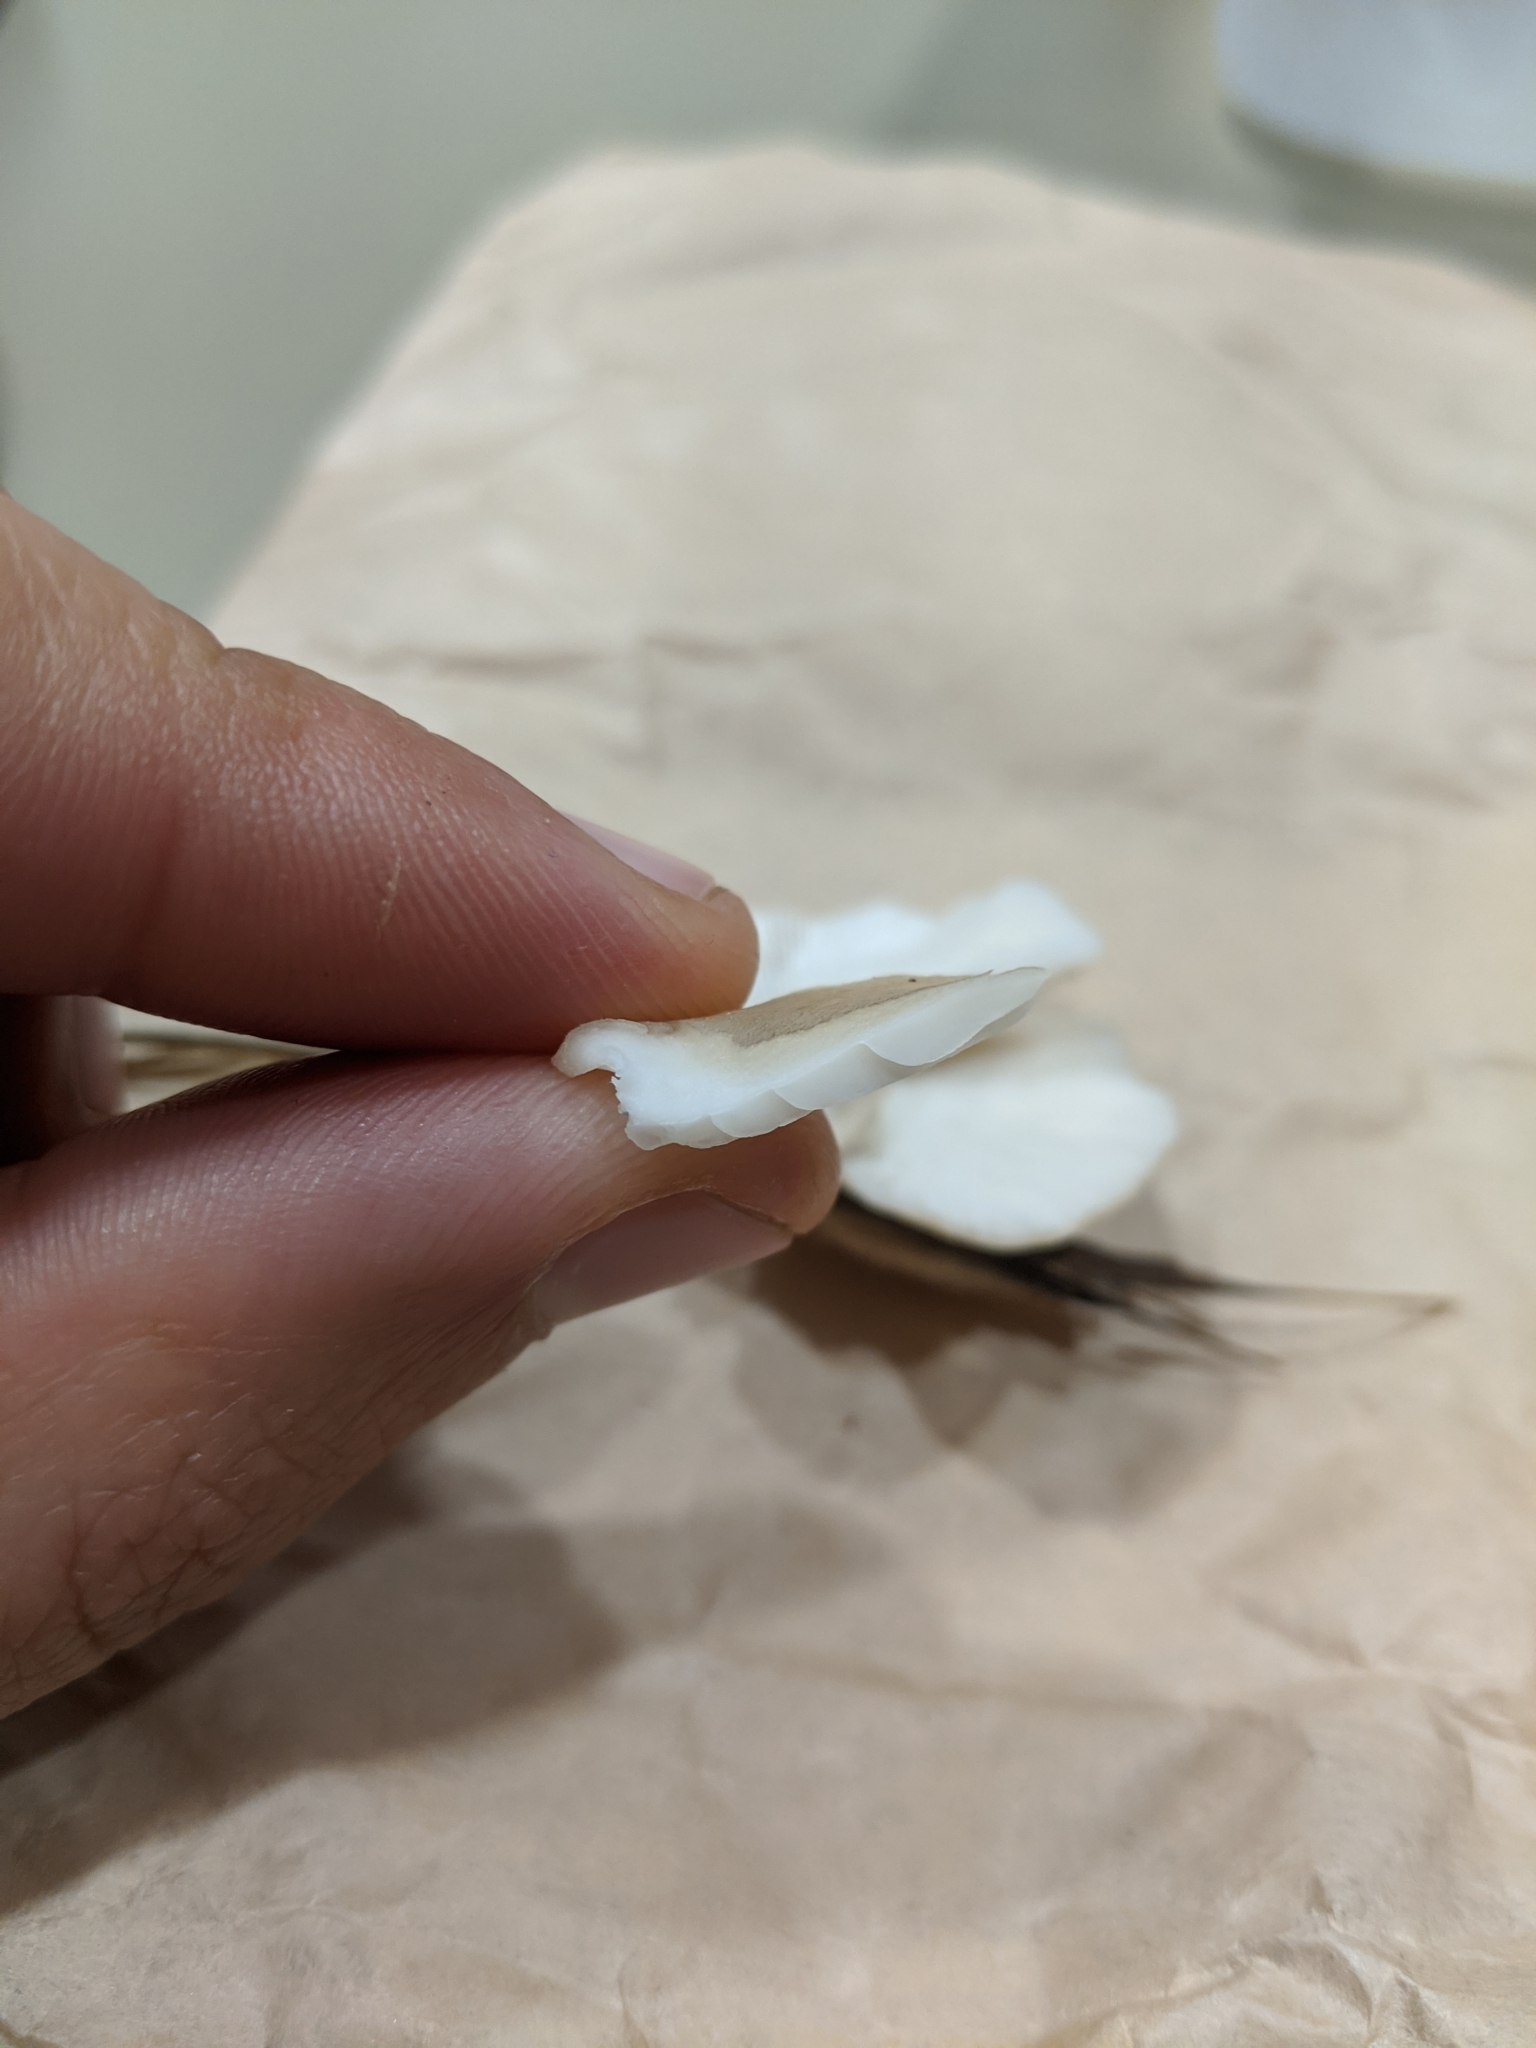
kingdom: Fungi
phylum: Basidiomycota
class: Agaricomycetes
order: Agaricales
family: Pleurotaceae
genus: Pleurotus
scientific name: Pleurotus parsonsiae
